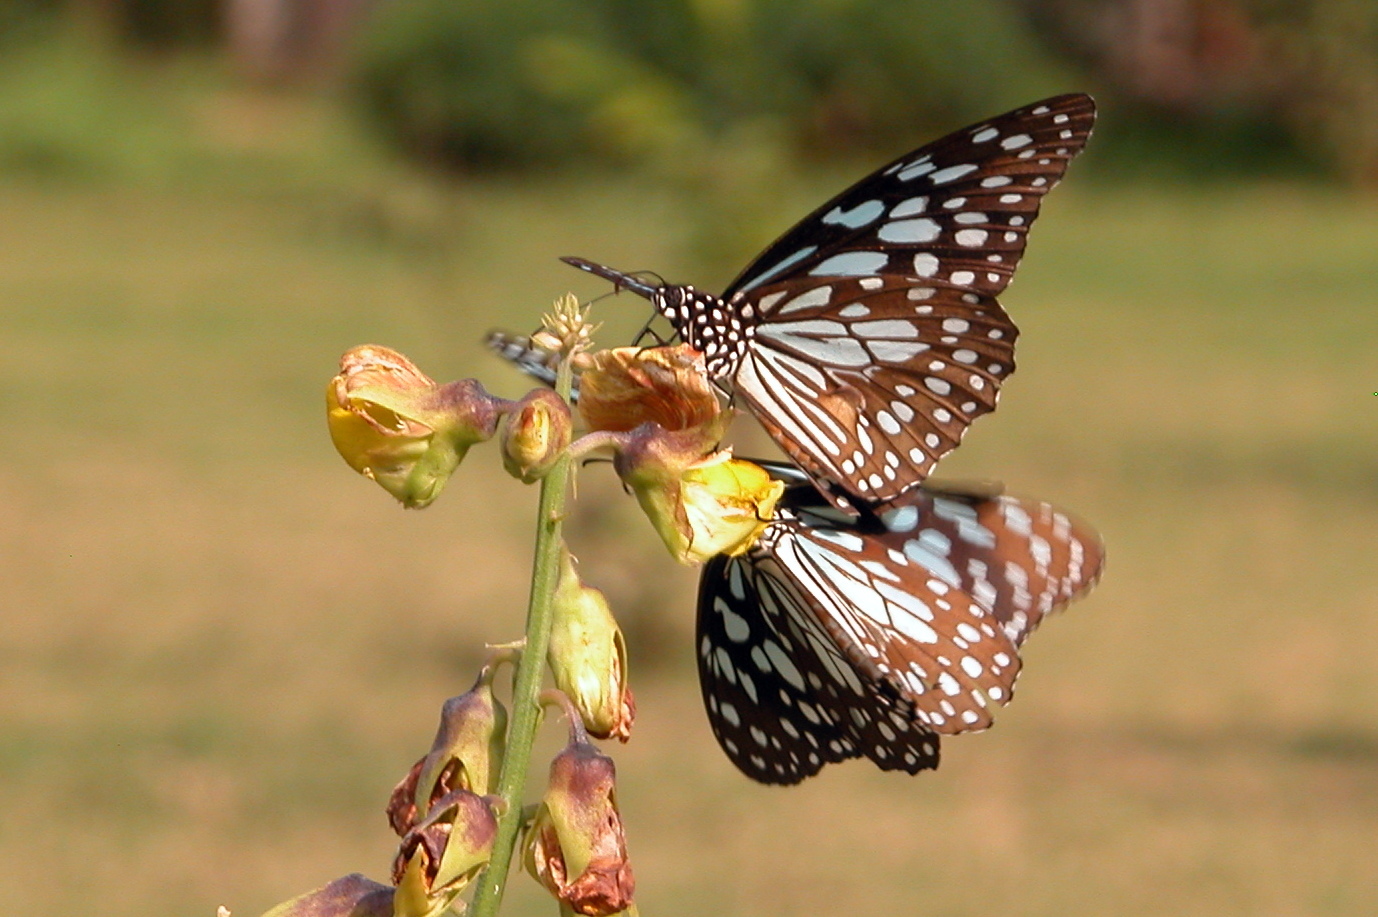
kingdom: Animalia
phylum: Arthropoda
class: Insecta
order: Lepidoptera
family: Nymphalidae
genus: Tirumala
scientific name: Tirumala limniace
